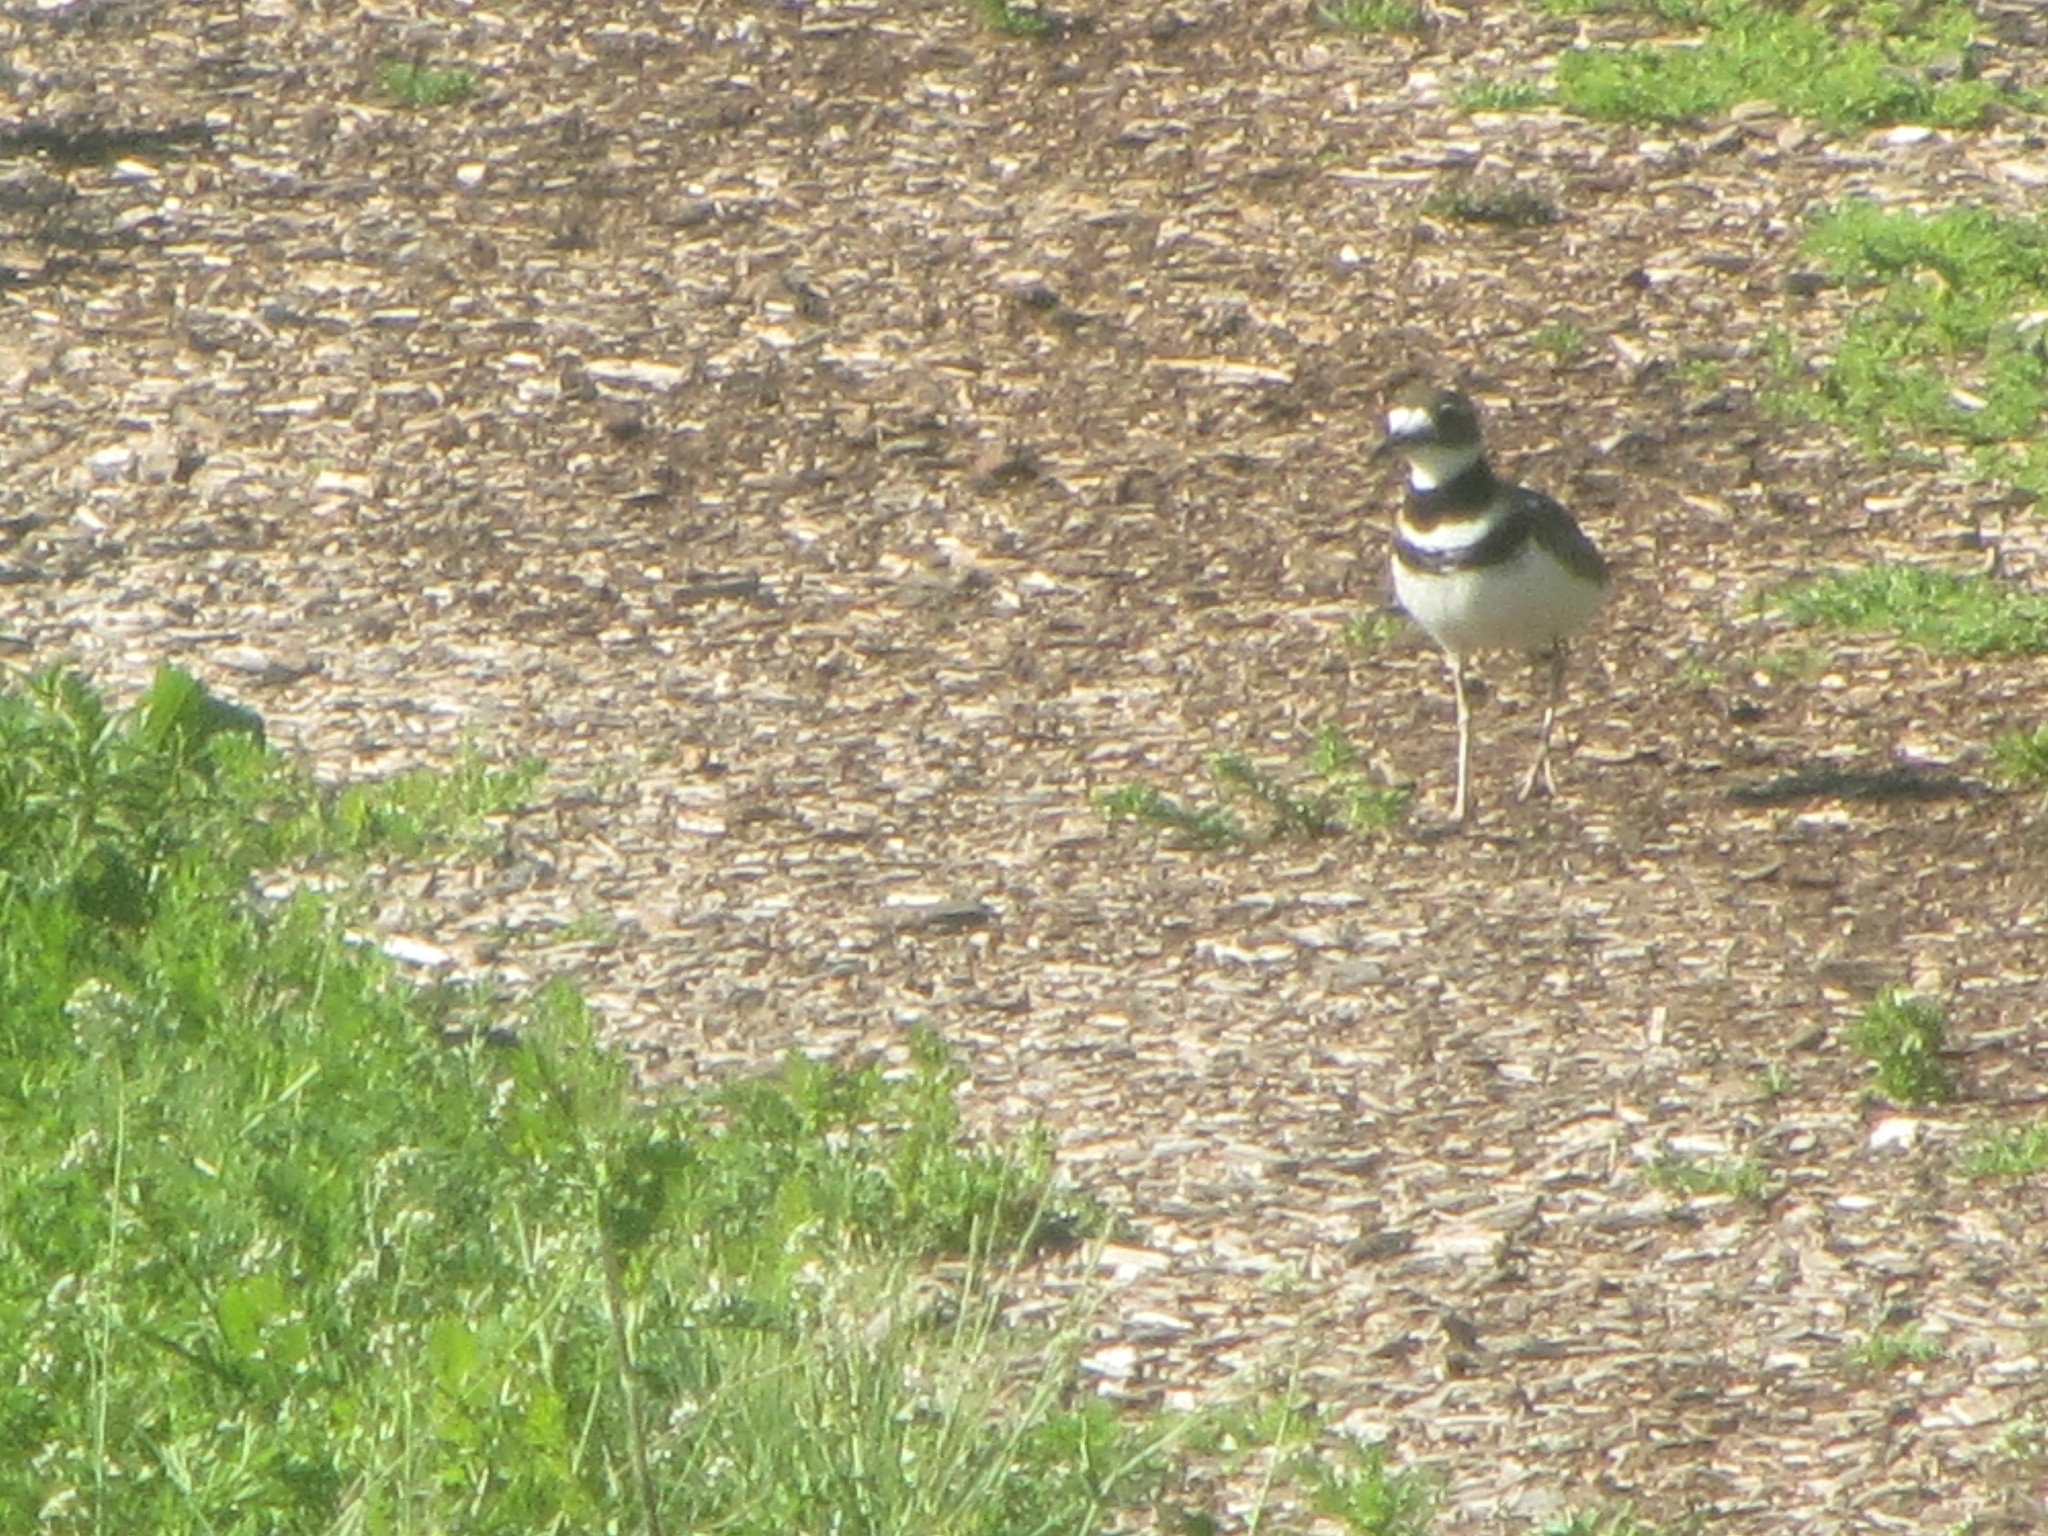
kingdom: Animalia
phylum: Chordata
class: Aves
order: Charadriiformes
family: Charadriidae
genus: Charadrius
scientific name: Charadrius vociferus
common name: Killdeer
